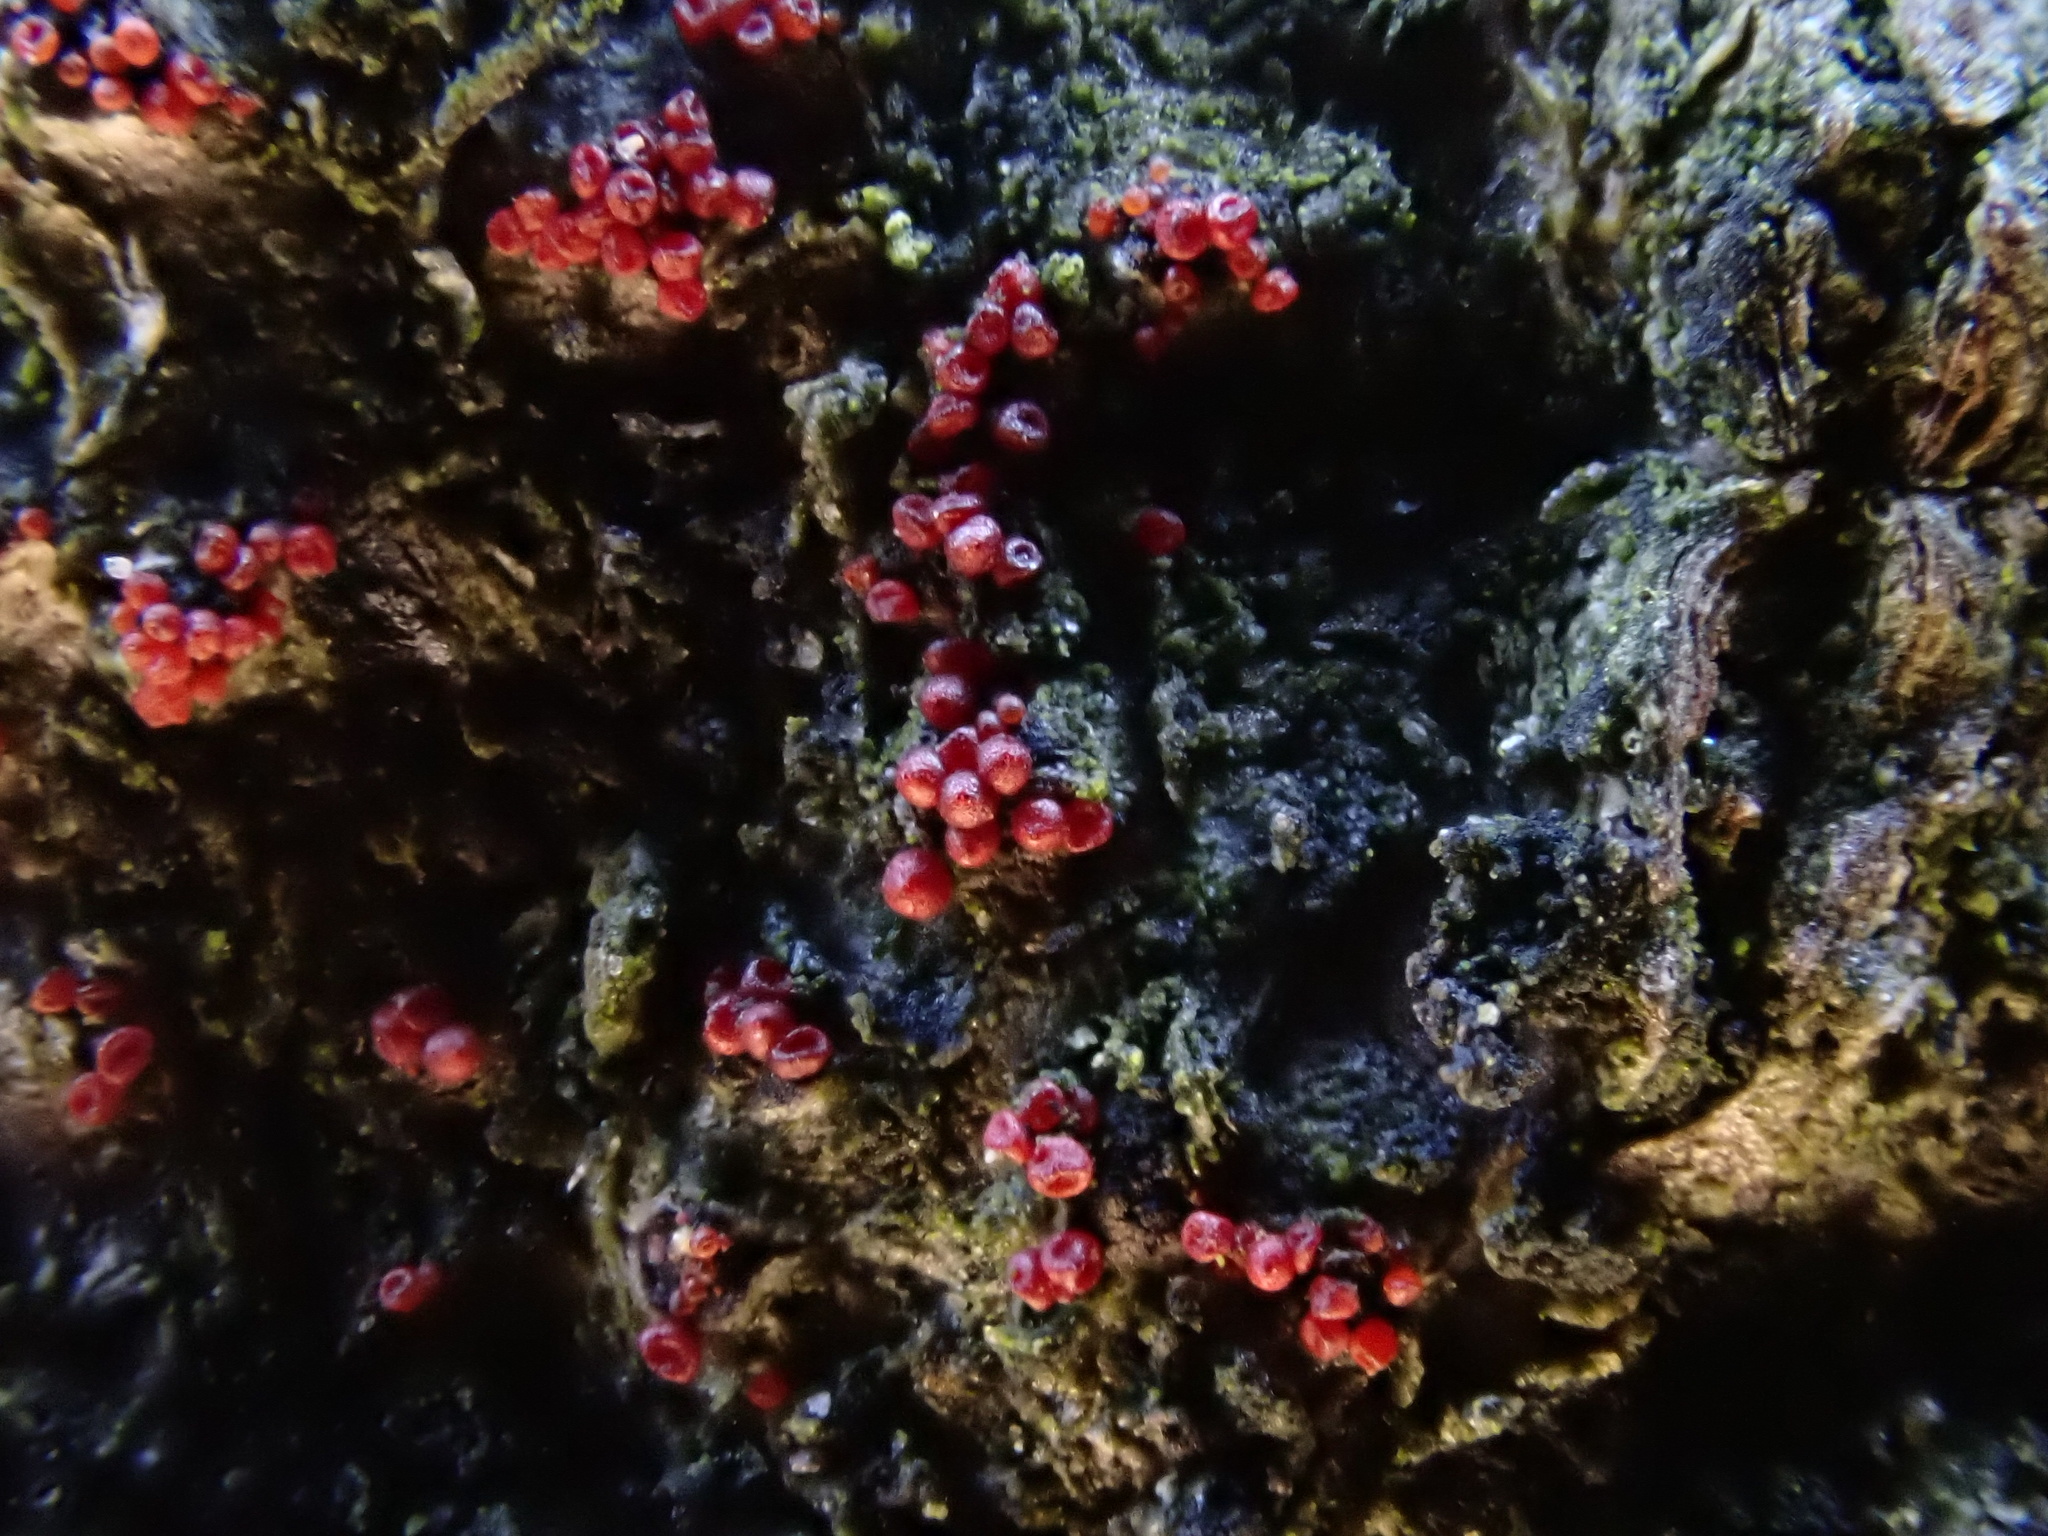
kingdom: Fungi
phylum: Ascomycota
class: Sordariomycetes
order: Hypocreales
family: Nectriaceae
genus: Nectria
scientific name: Nectria cinnabarina
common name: Coral spot
